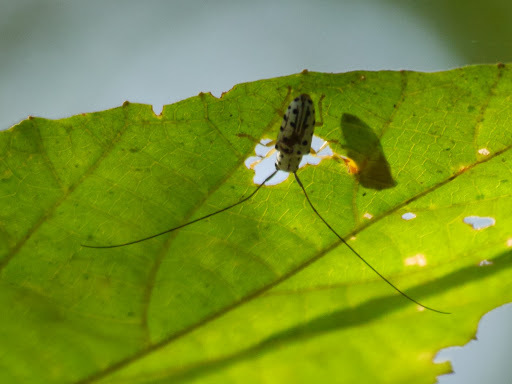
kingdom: Animalia
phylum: Arthropoda
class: Insecta
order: Coleoptera
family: Cerambycidae
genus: Chariesthes
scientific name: Chariesthes multinotatus
